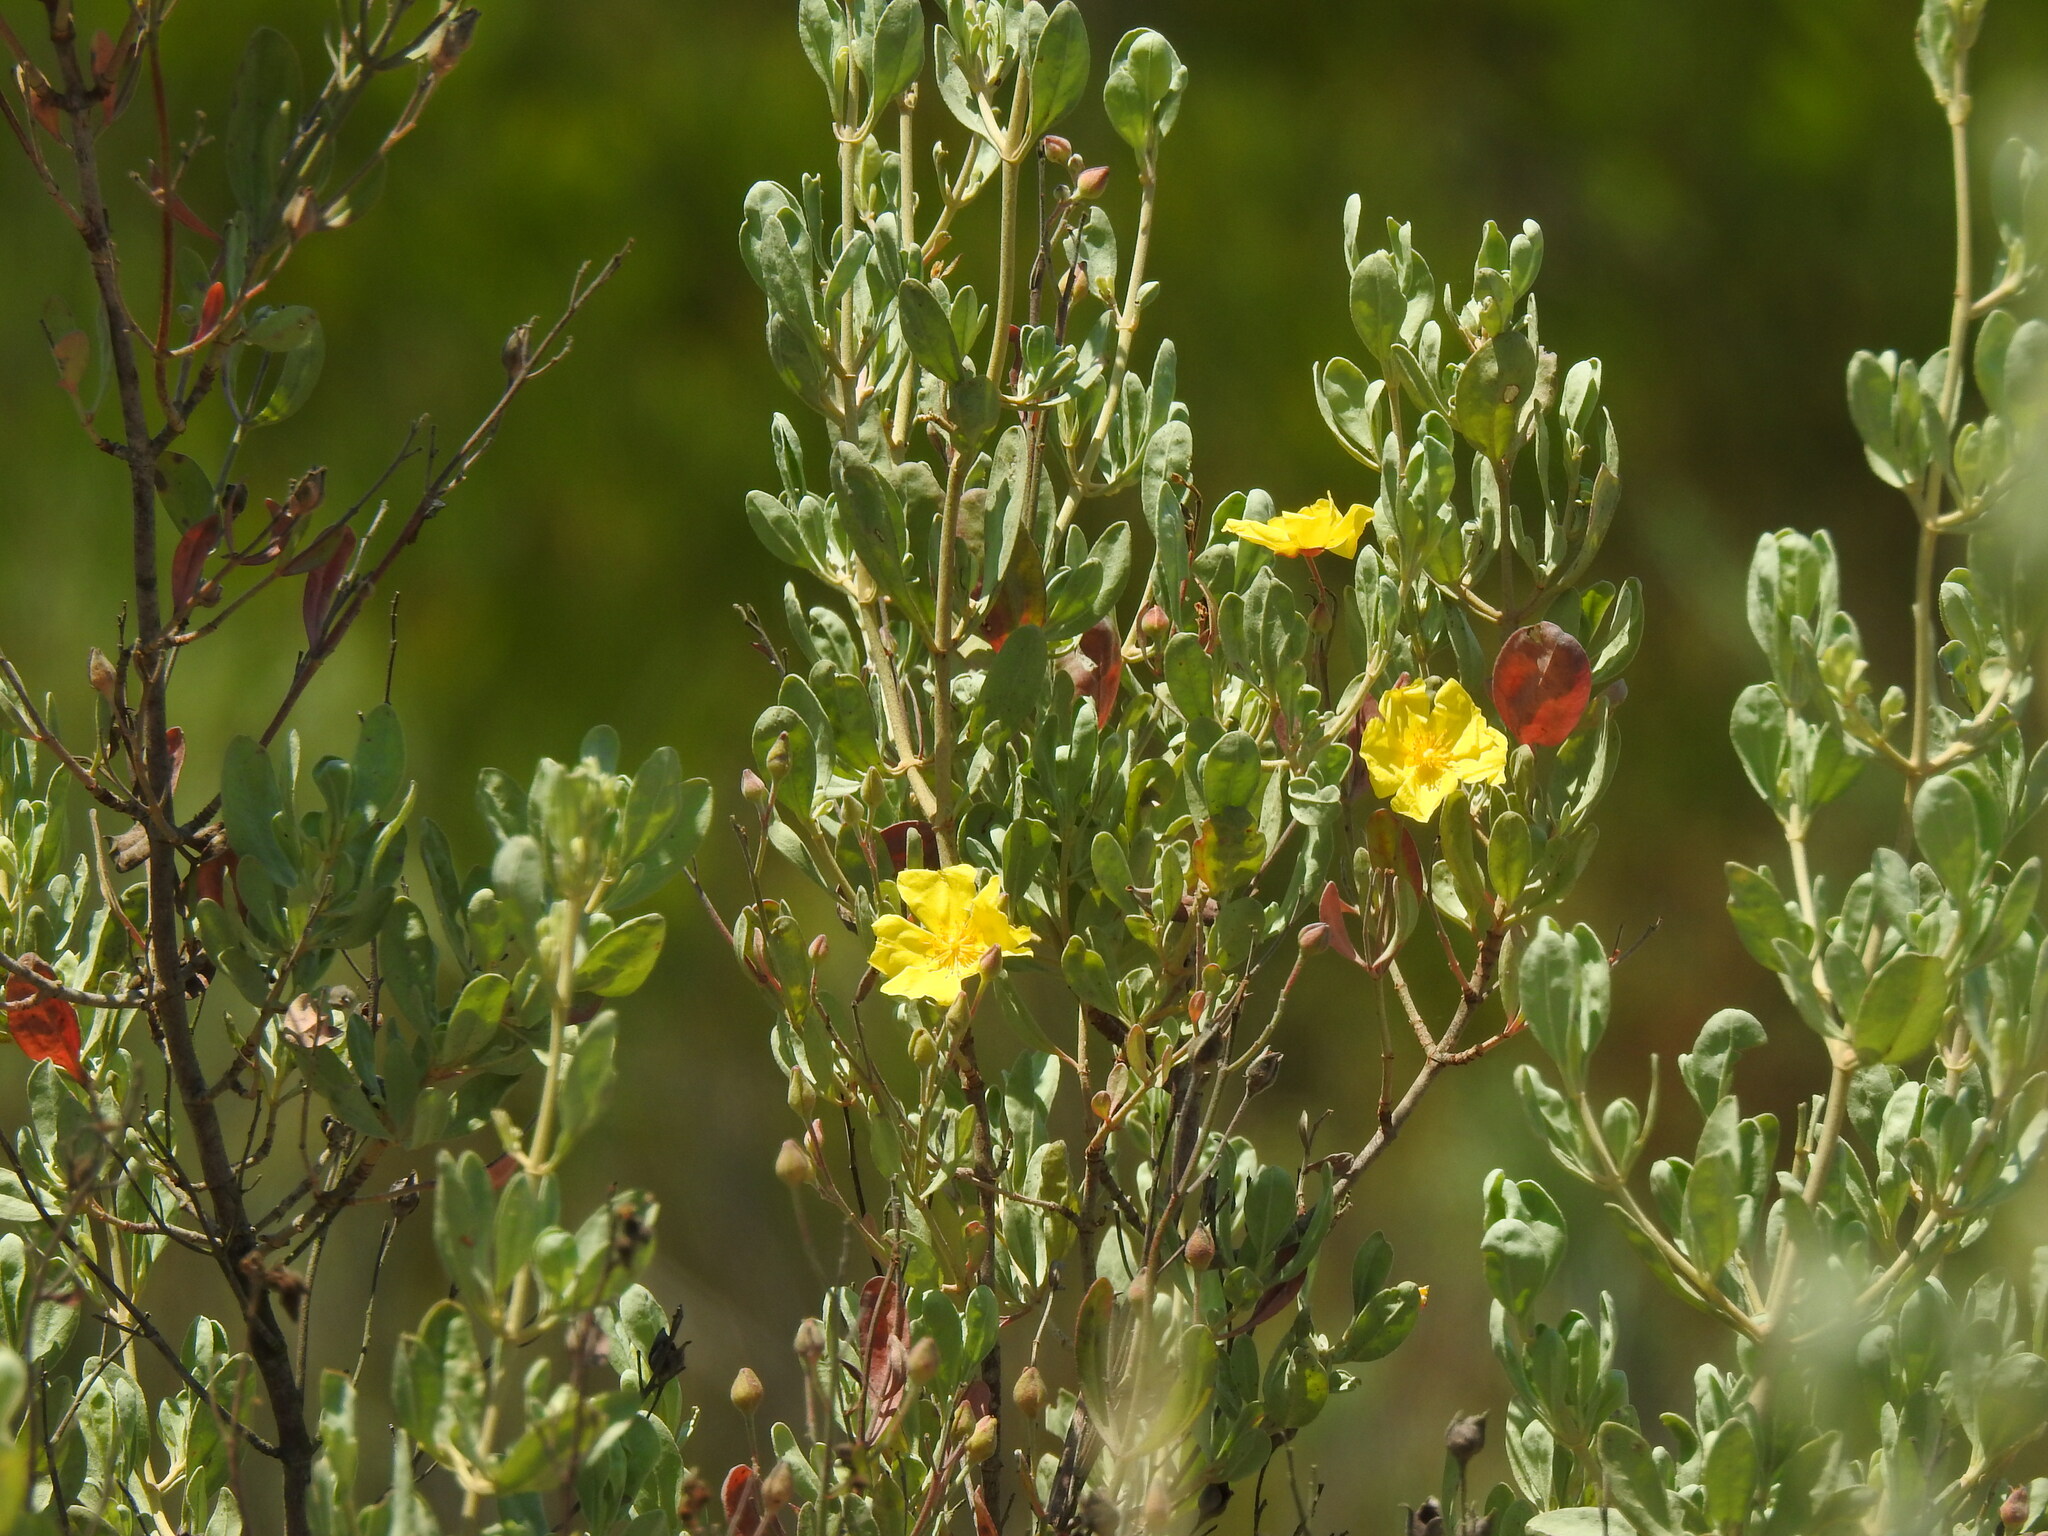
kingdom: Plantae
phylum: Tracheophyta
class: Magnoliopsida
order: Malvales
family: Cistaceae
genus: Halimium
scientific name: Halimium halimifolium
